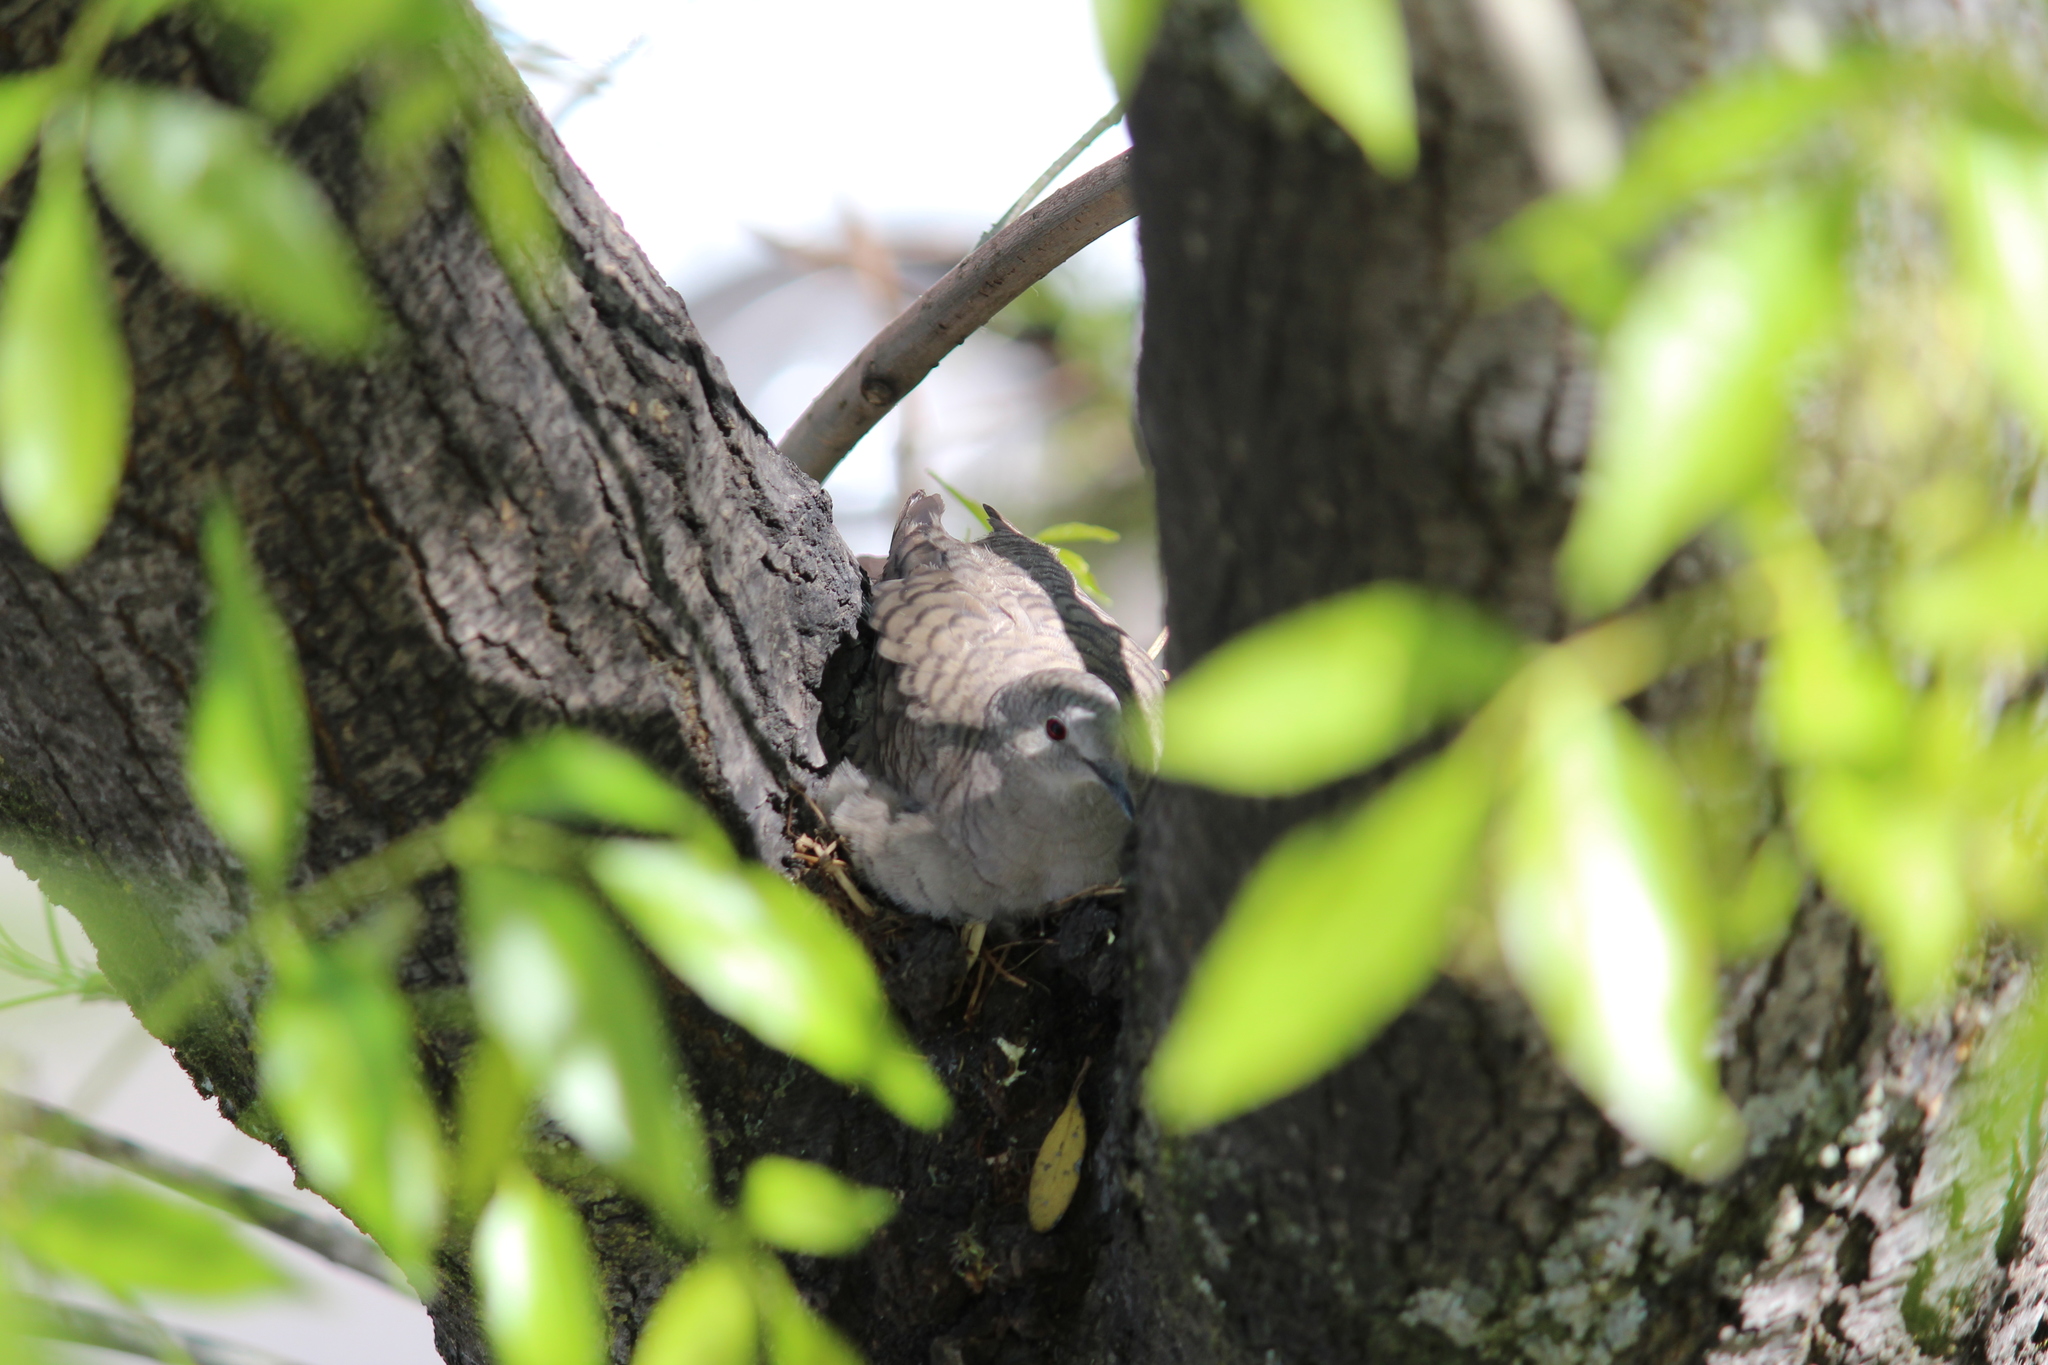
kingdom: Animalia
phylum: Chordata
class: Aves
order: Columbiformes
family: Columbidae
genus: Columbina
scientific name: Columbina inca
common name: Inca dove
